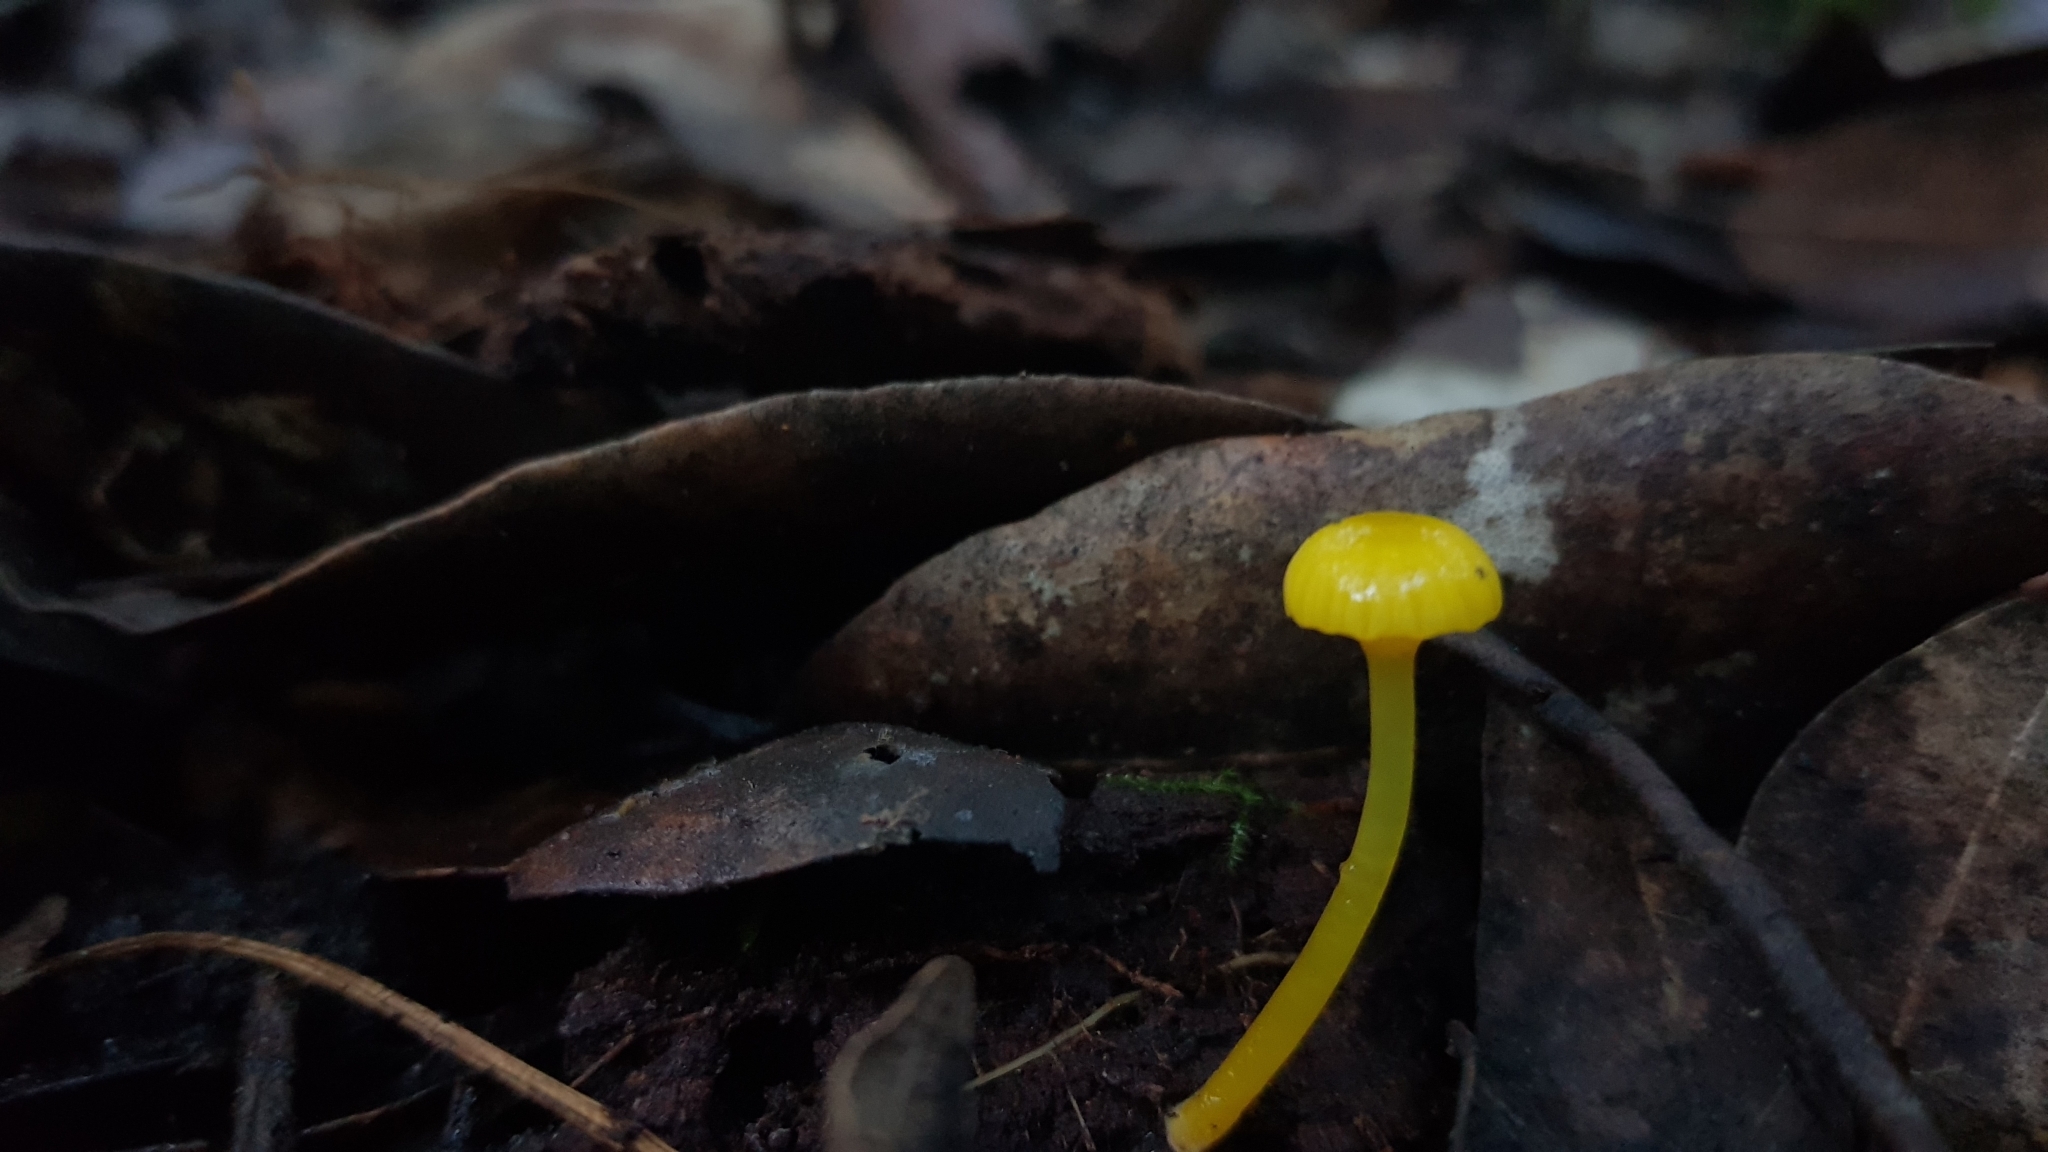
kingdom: Fungi
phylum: Basidiomycota
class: Agaricomycetes
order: Agaricales
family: Hygrophoraceae
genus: Gloioxanthomyces
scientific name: Gloioxanthomyces
